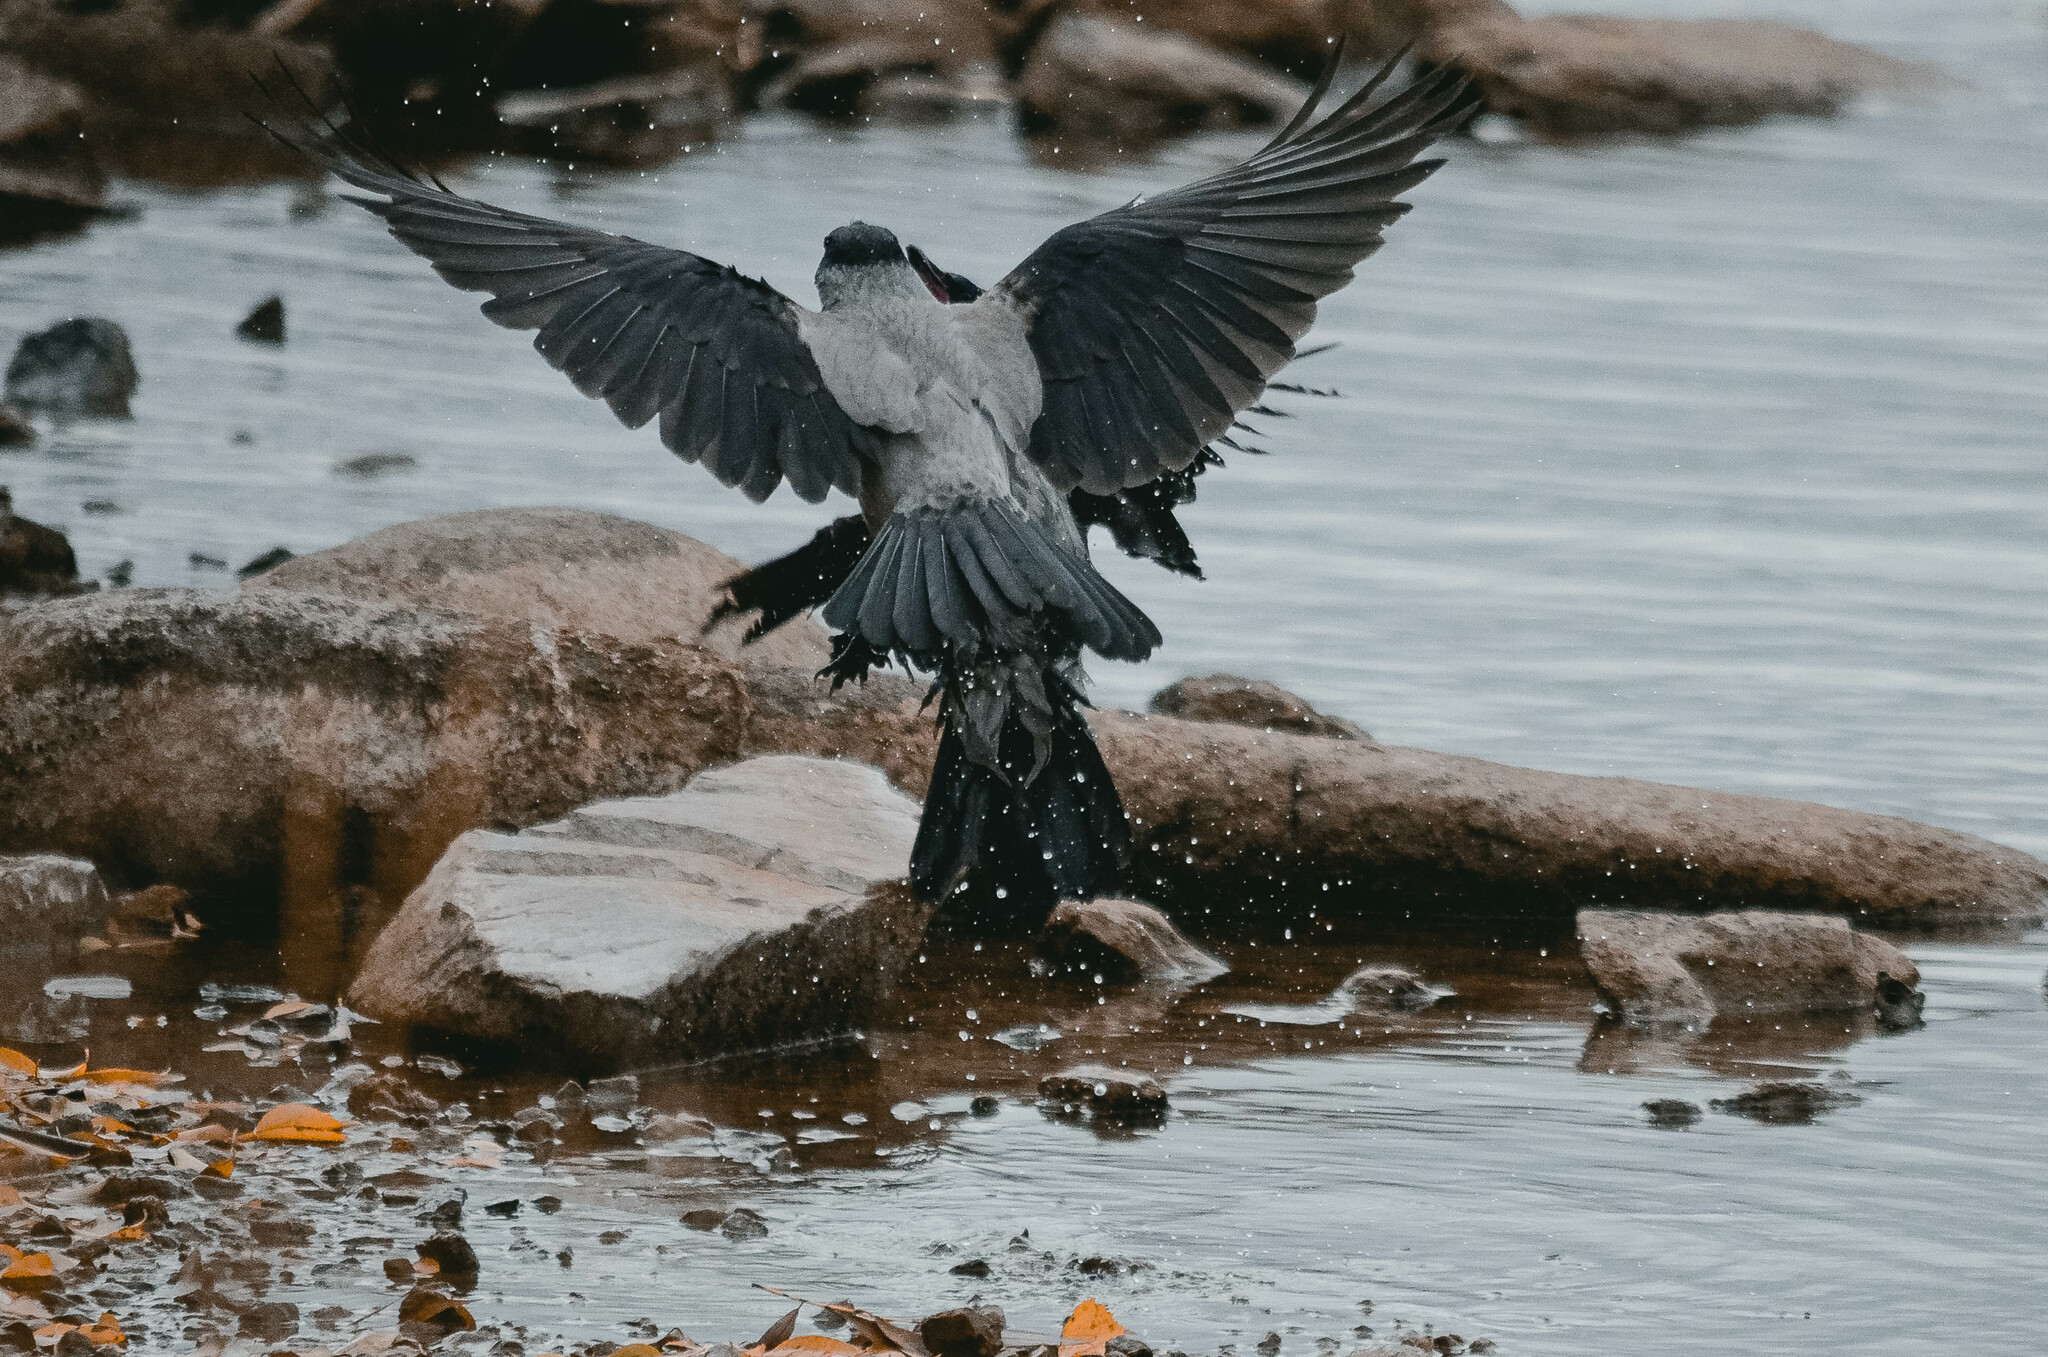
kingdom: Animalia
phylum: Chordata
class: Aves
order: Passeriformes
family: Corvidae
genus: Corvus
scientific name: Corvus cornix
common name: Hooded crow
